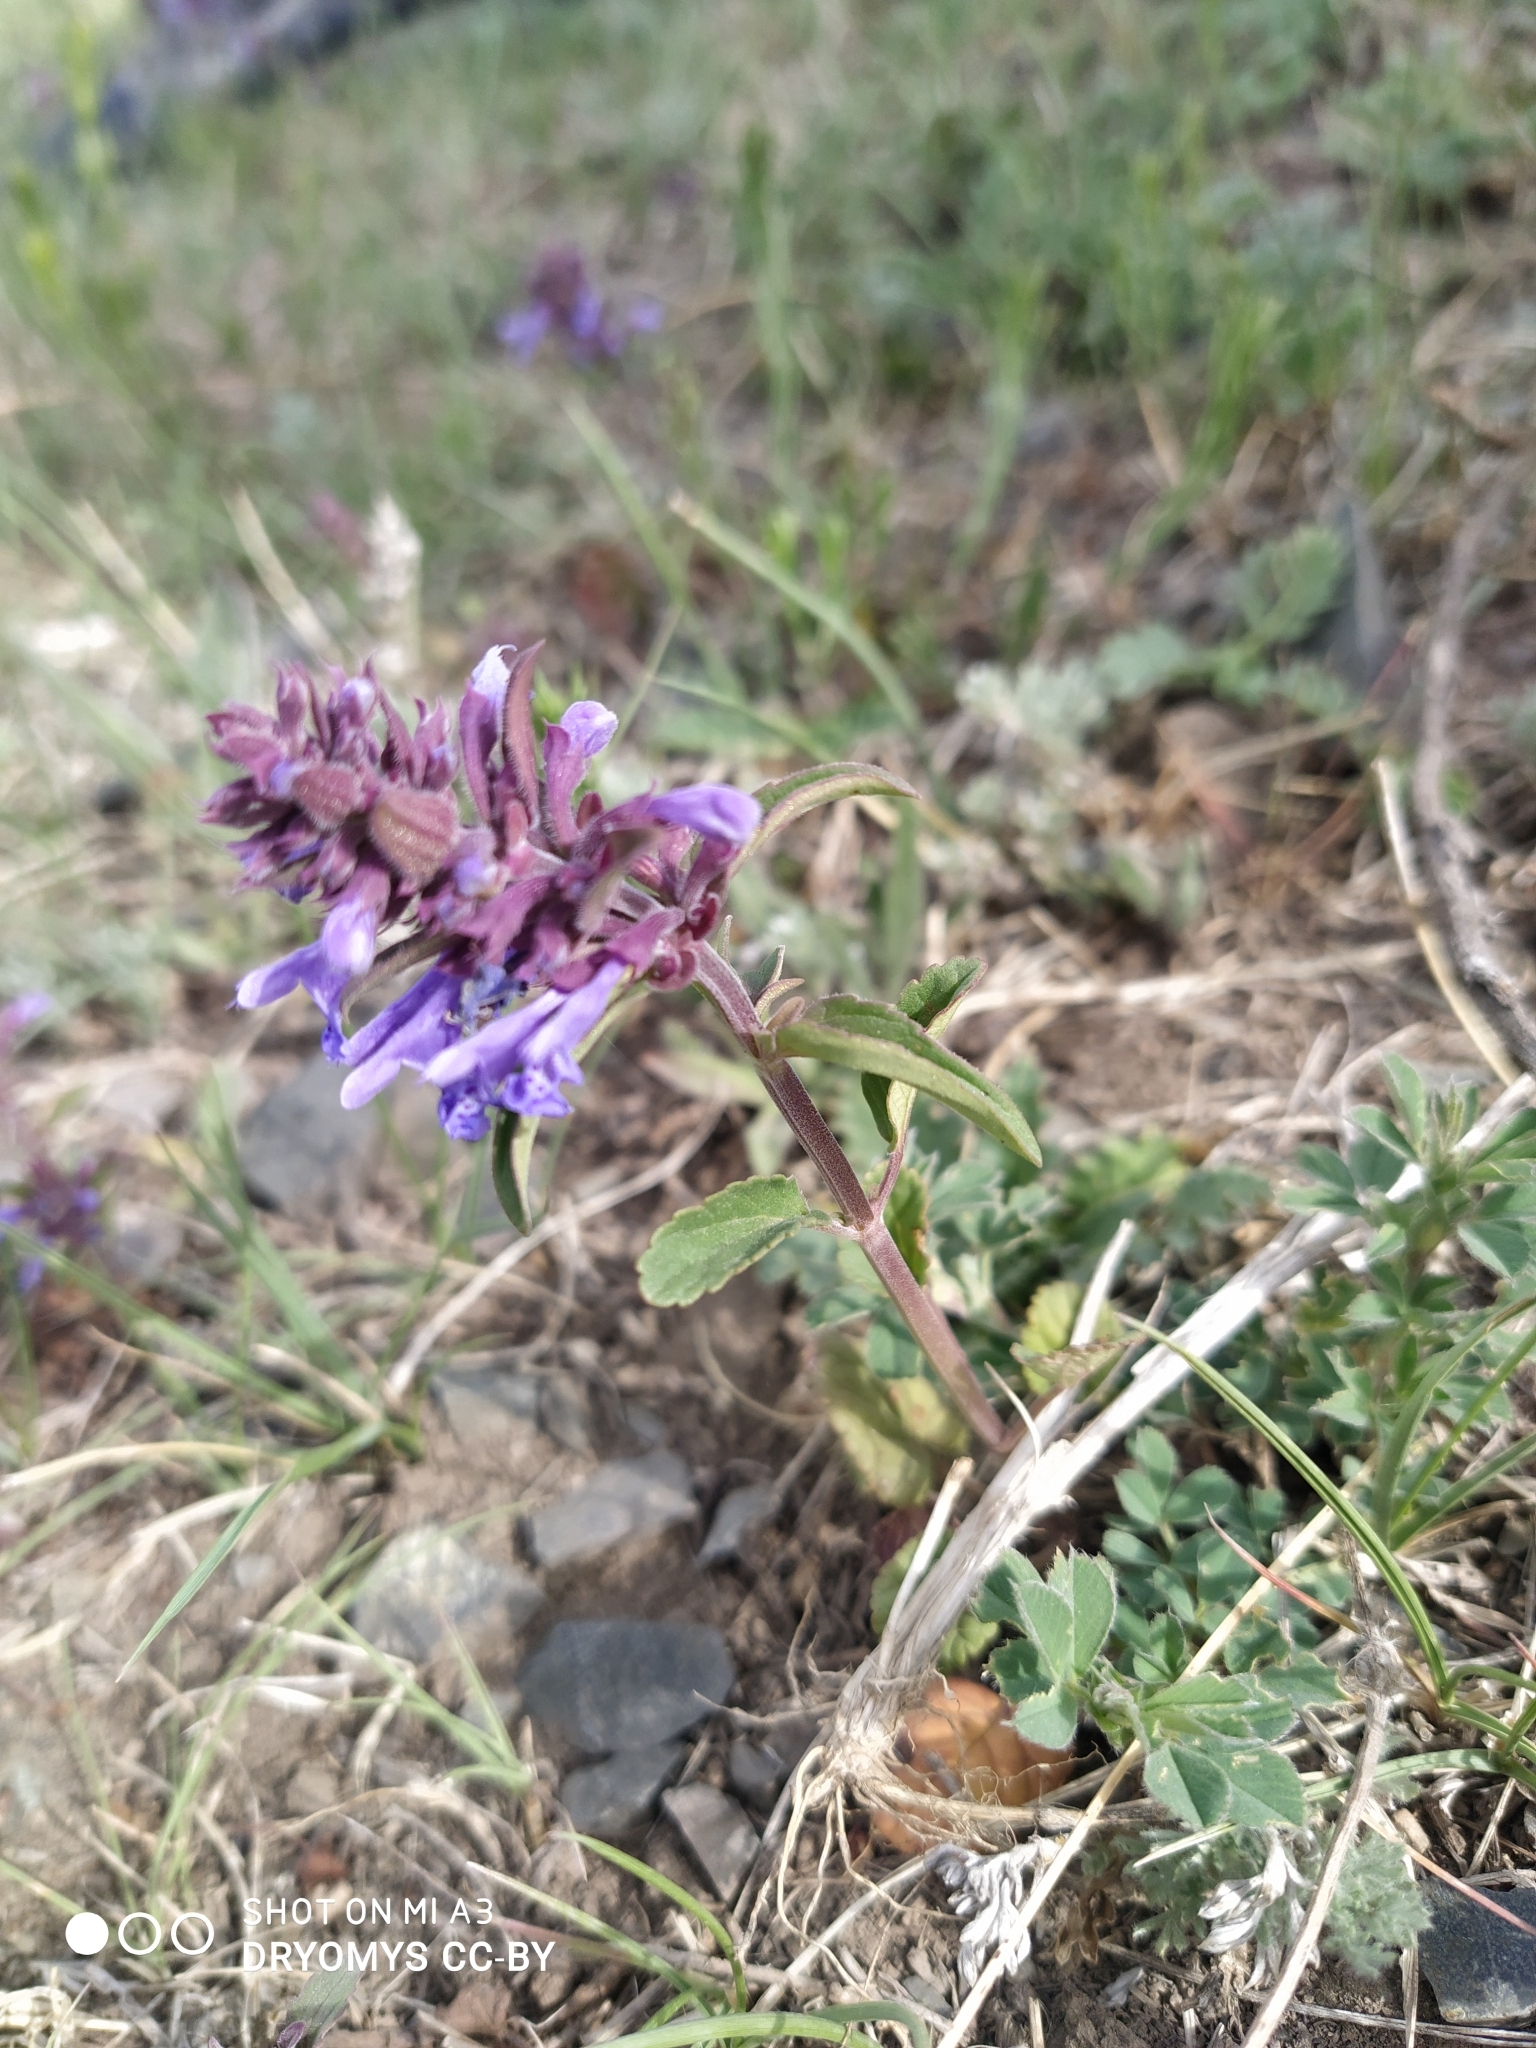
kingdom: Plantae
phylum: Tracheophyta
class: Magnoliopsida
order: Lamiales
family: Lamiaceae
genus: Dracocephalum
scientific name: Dracocephalum nutans
